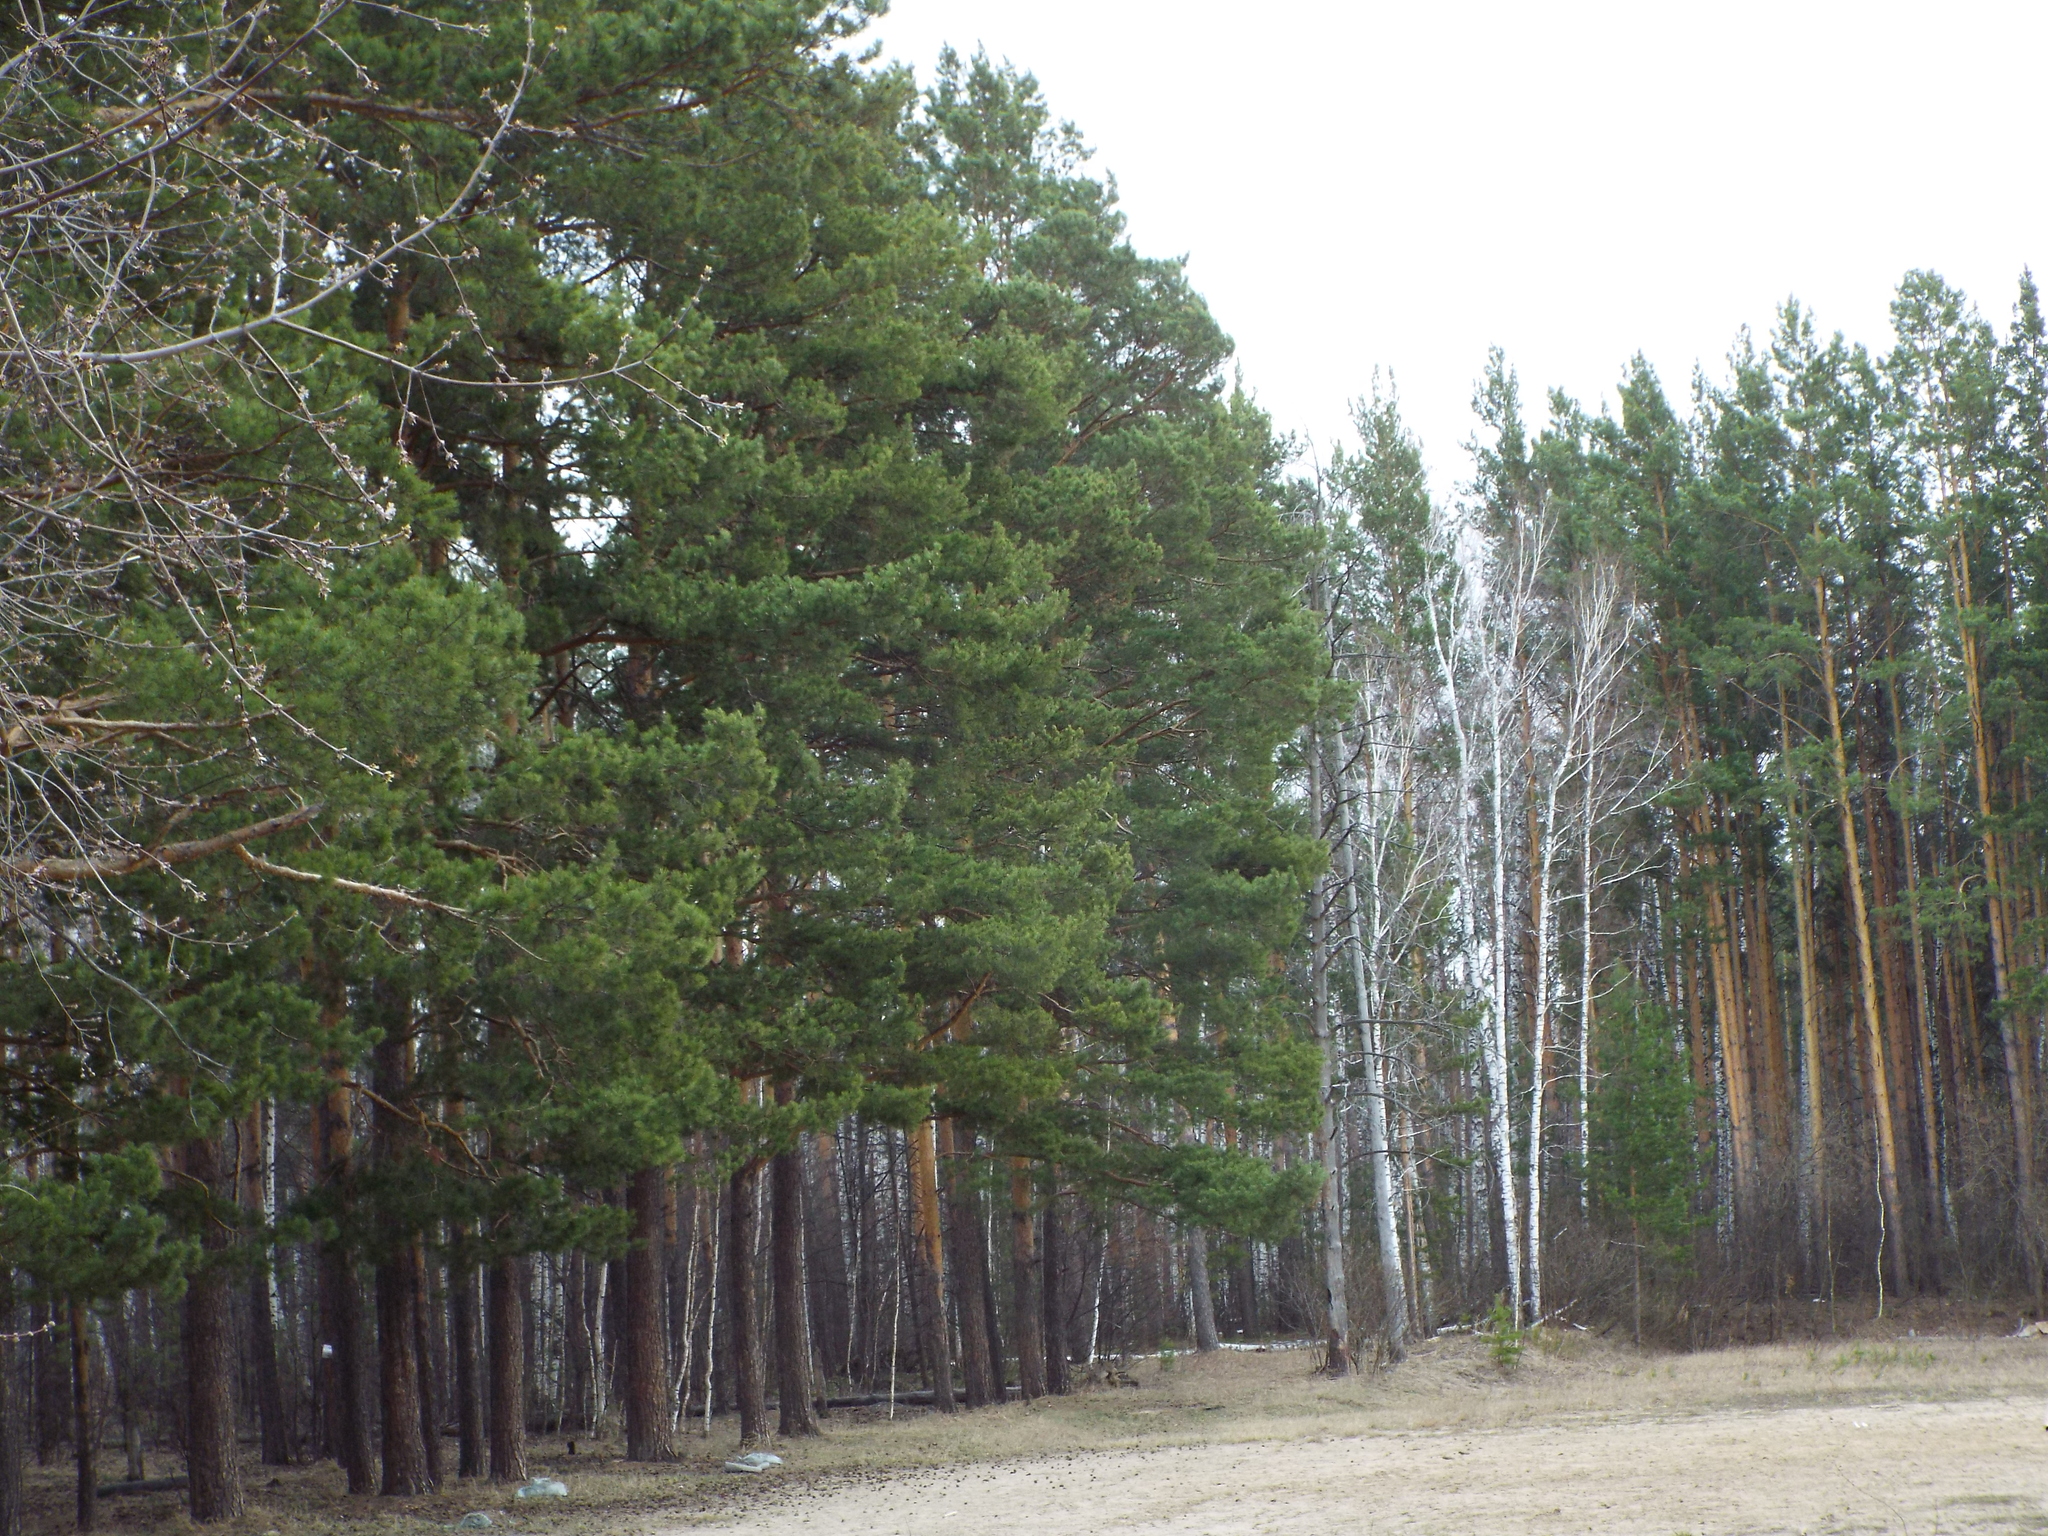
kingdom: Plantae
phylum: Tracheophyta
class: Pinopsida
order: Pinales
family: Pinaceae
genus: Pinus
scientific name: Pinus sylvestris
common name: Scots pine
